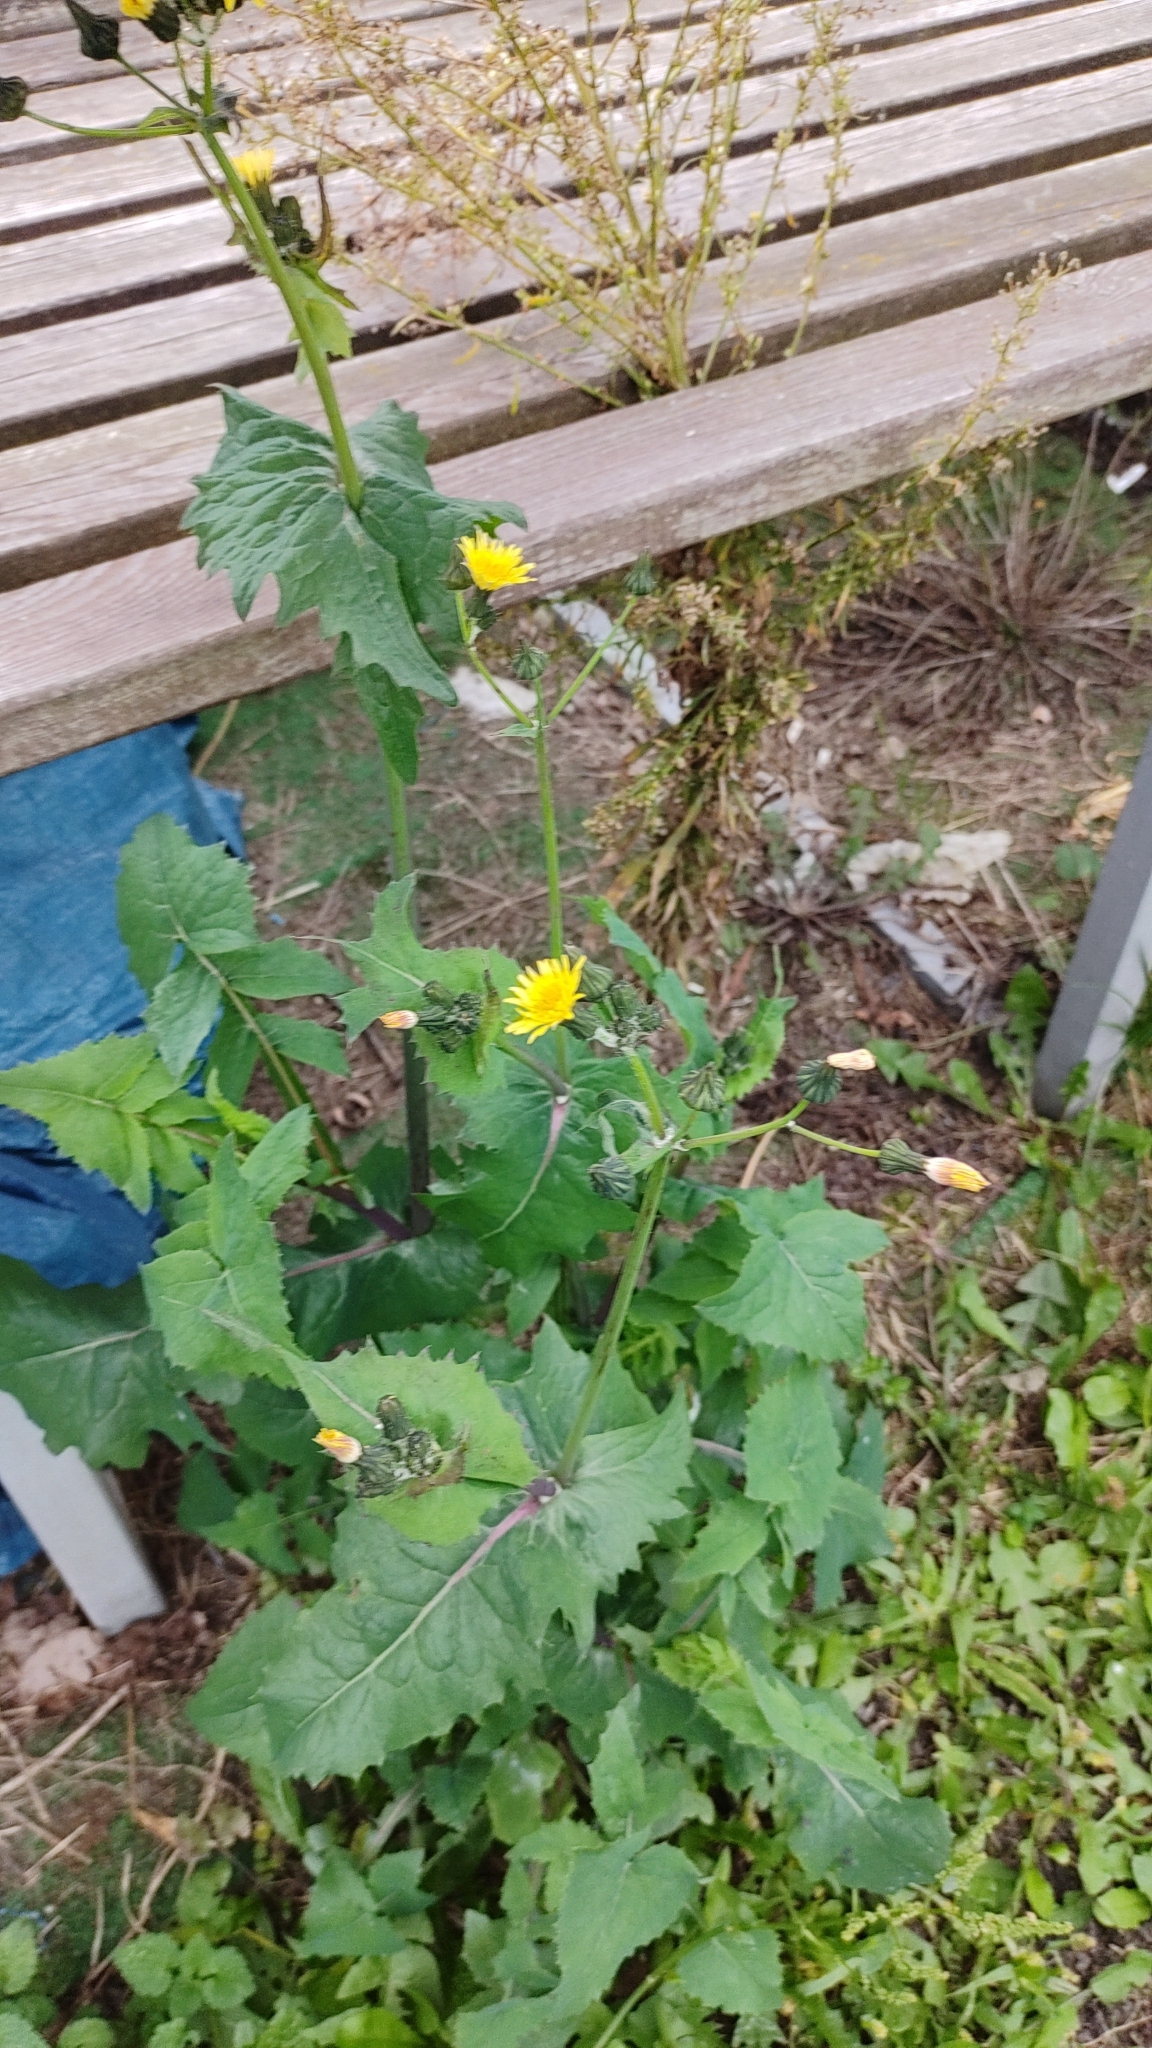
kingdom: Plantae
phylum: Tracheophyta
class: Magnoliopsida
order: Asterales
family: Asteraceae
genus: Sonchus
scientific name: Sonchus oleraceus
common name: Common sowthistle
